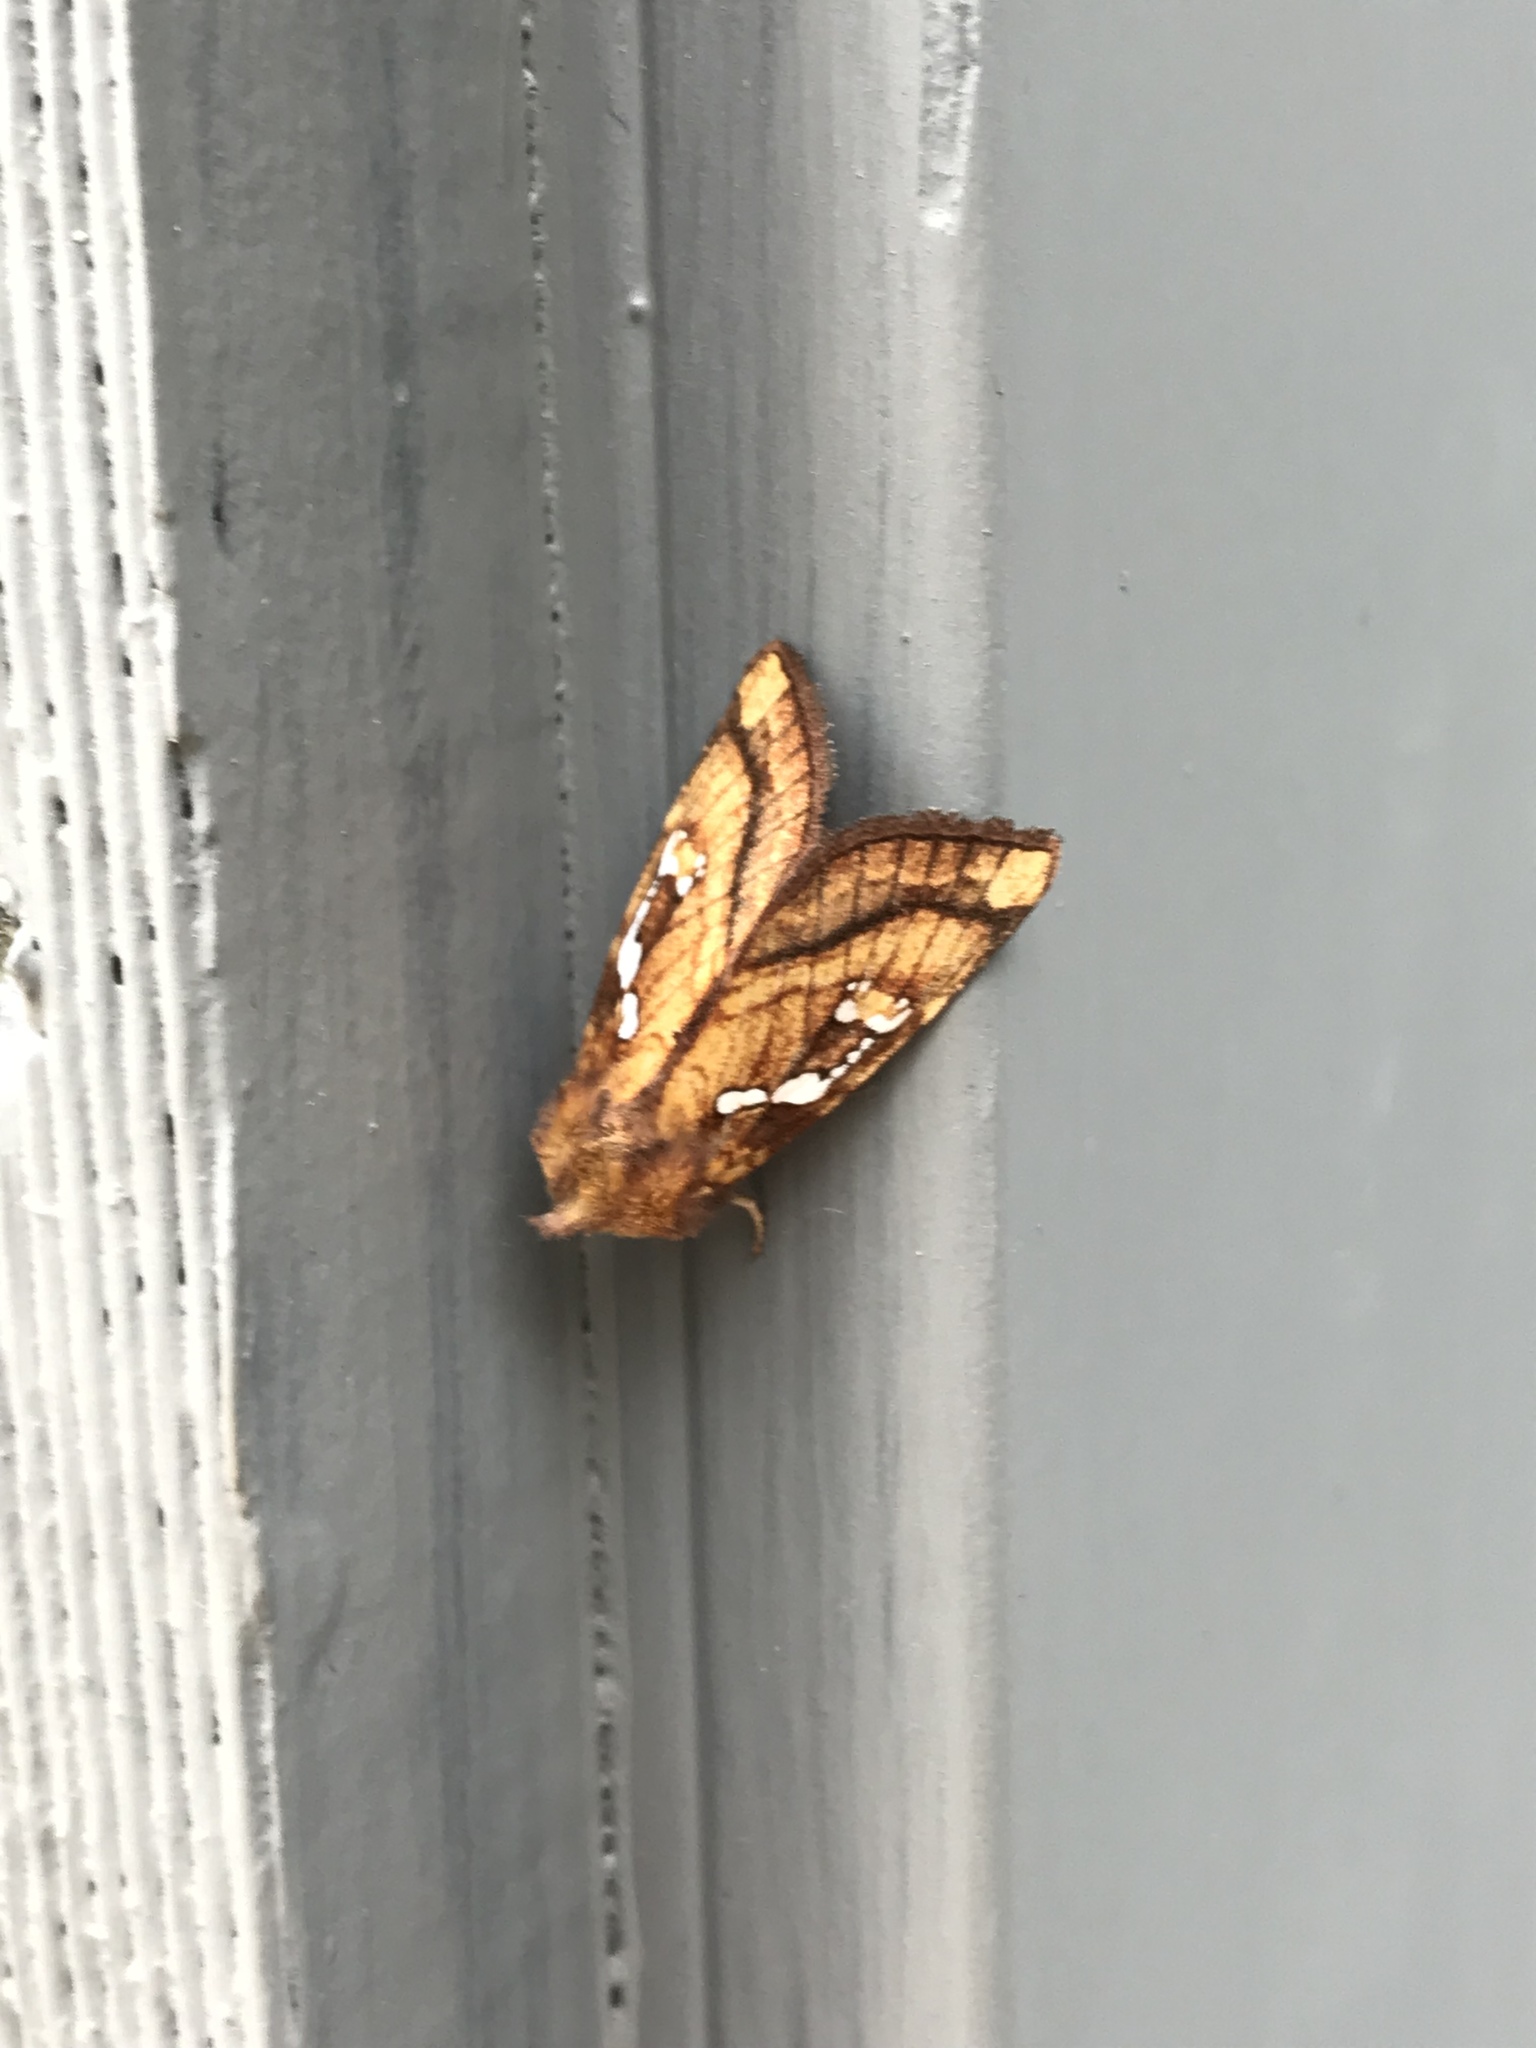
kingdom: Animalia
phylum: Arthropoda
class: Insecta
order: Lepidoptera
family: Noctuidae
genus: Papaipema
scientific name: Papaipema pterisii
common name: Bracken borer moth
